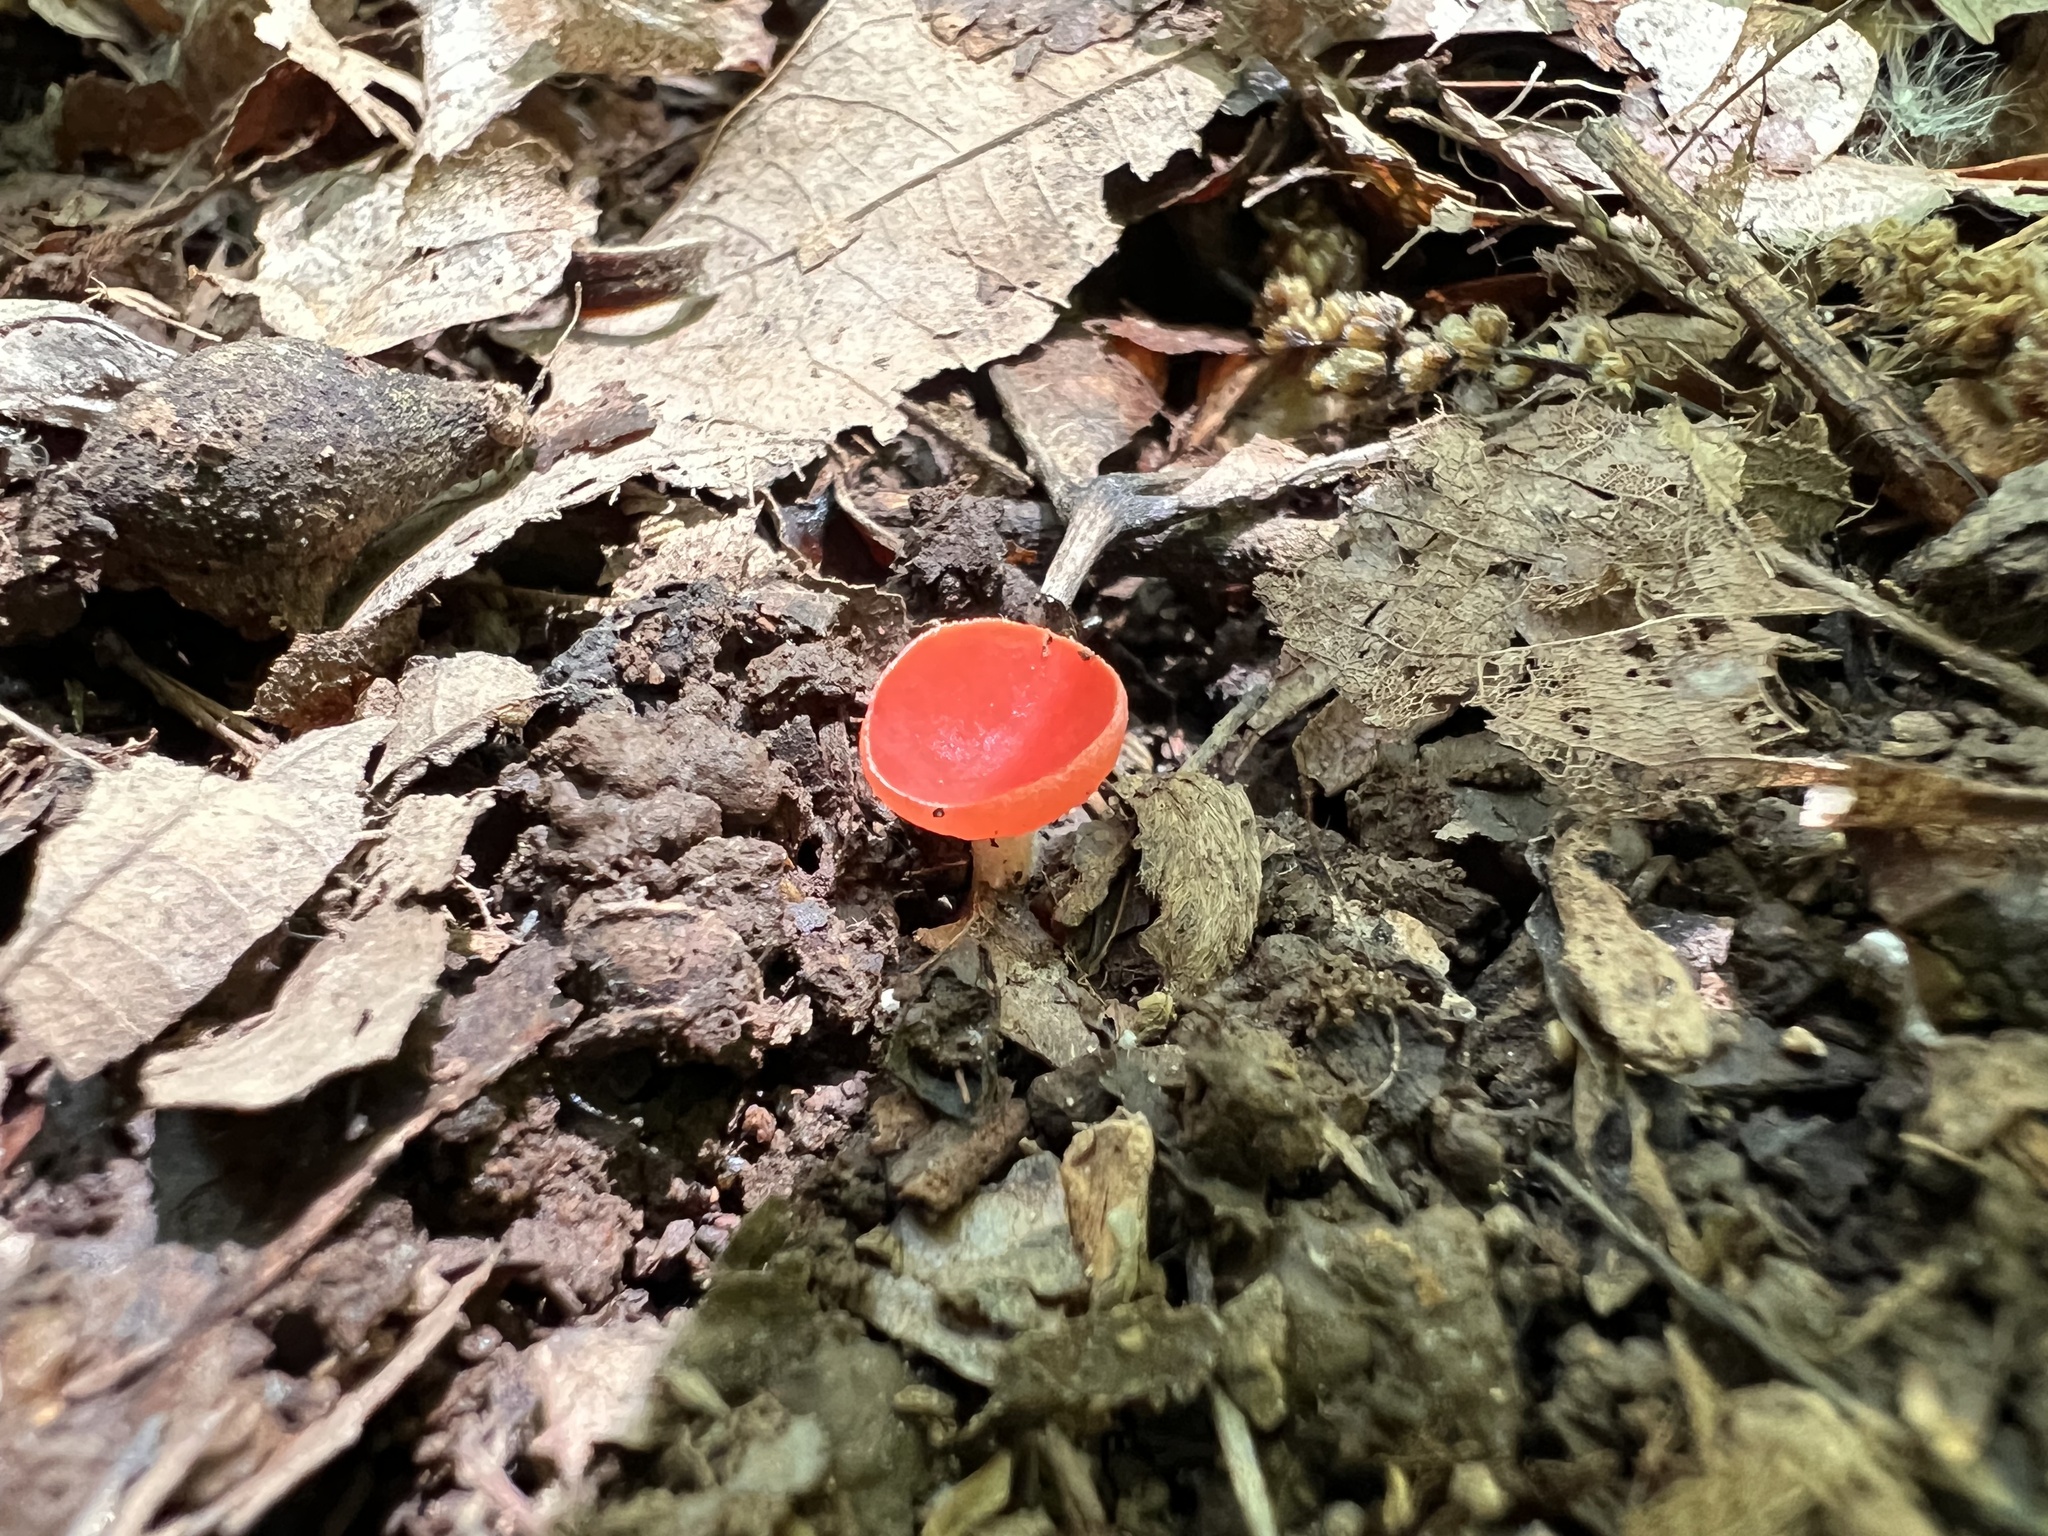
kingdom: Fungi
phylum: Ascomycota
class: Pezizomycetes
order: Pezizales
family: Sarcoscyphaceae
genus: Sarcoscypha
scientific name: Sarcoscypha occidentalis
